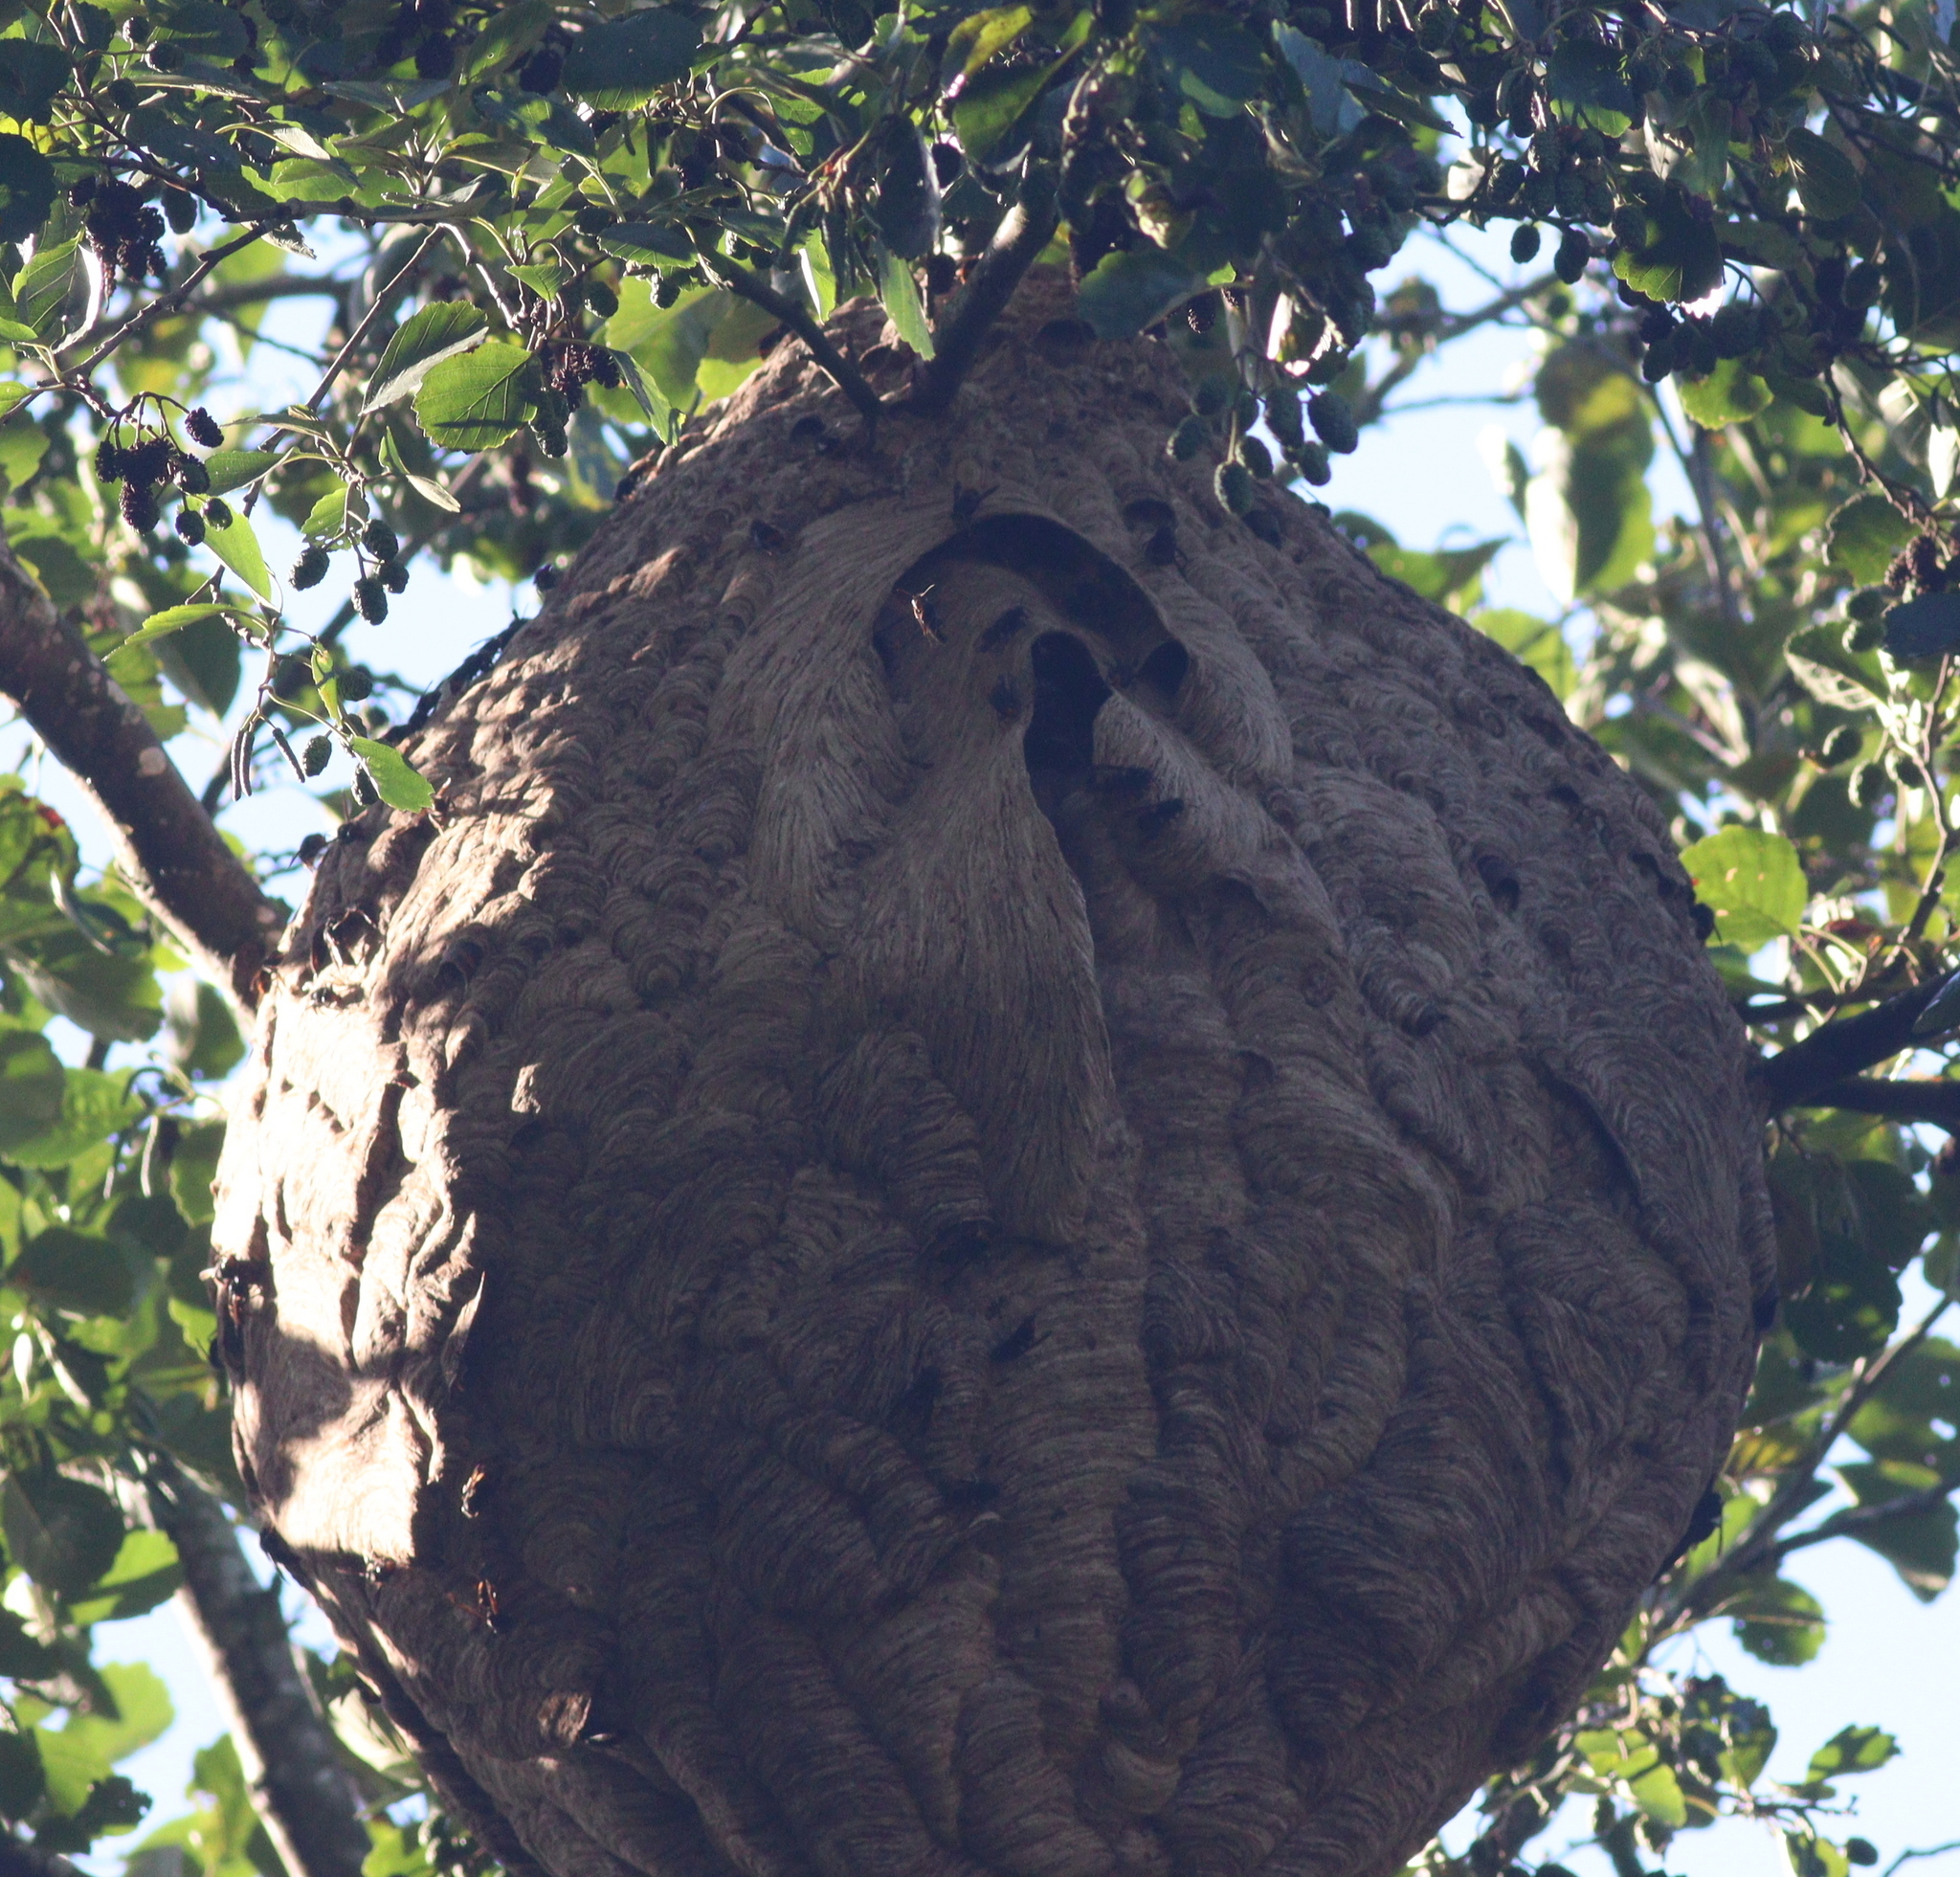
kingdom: Animalia
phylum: Arthropoda
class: Insecta
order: Hymenoptera
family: Vespidae
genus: Vespa
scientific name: Vespa velutina
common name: Asian hornet
